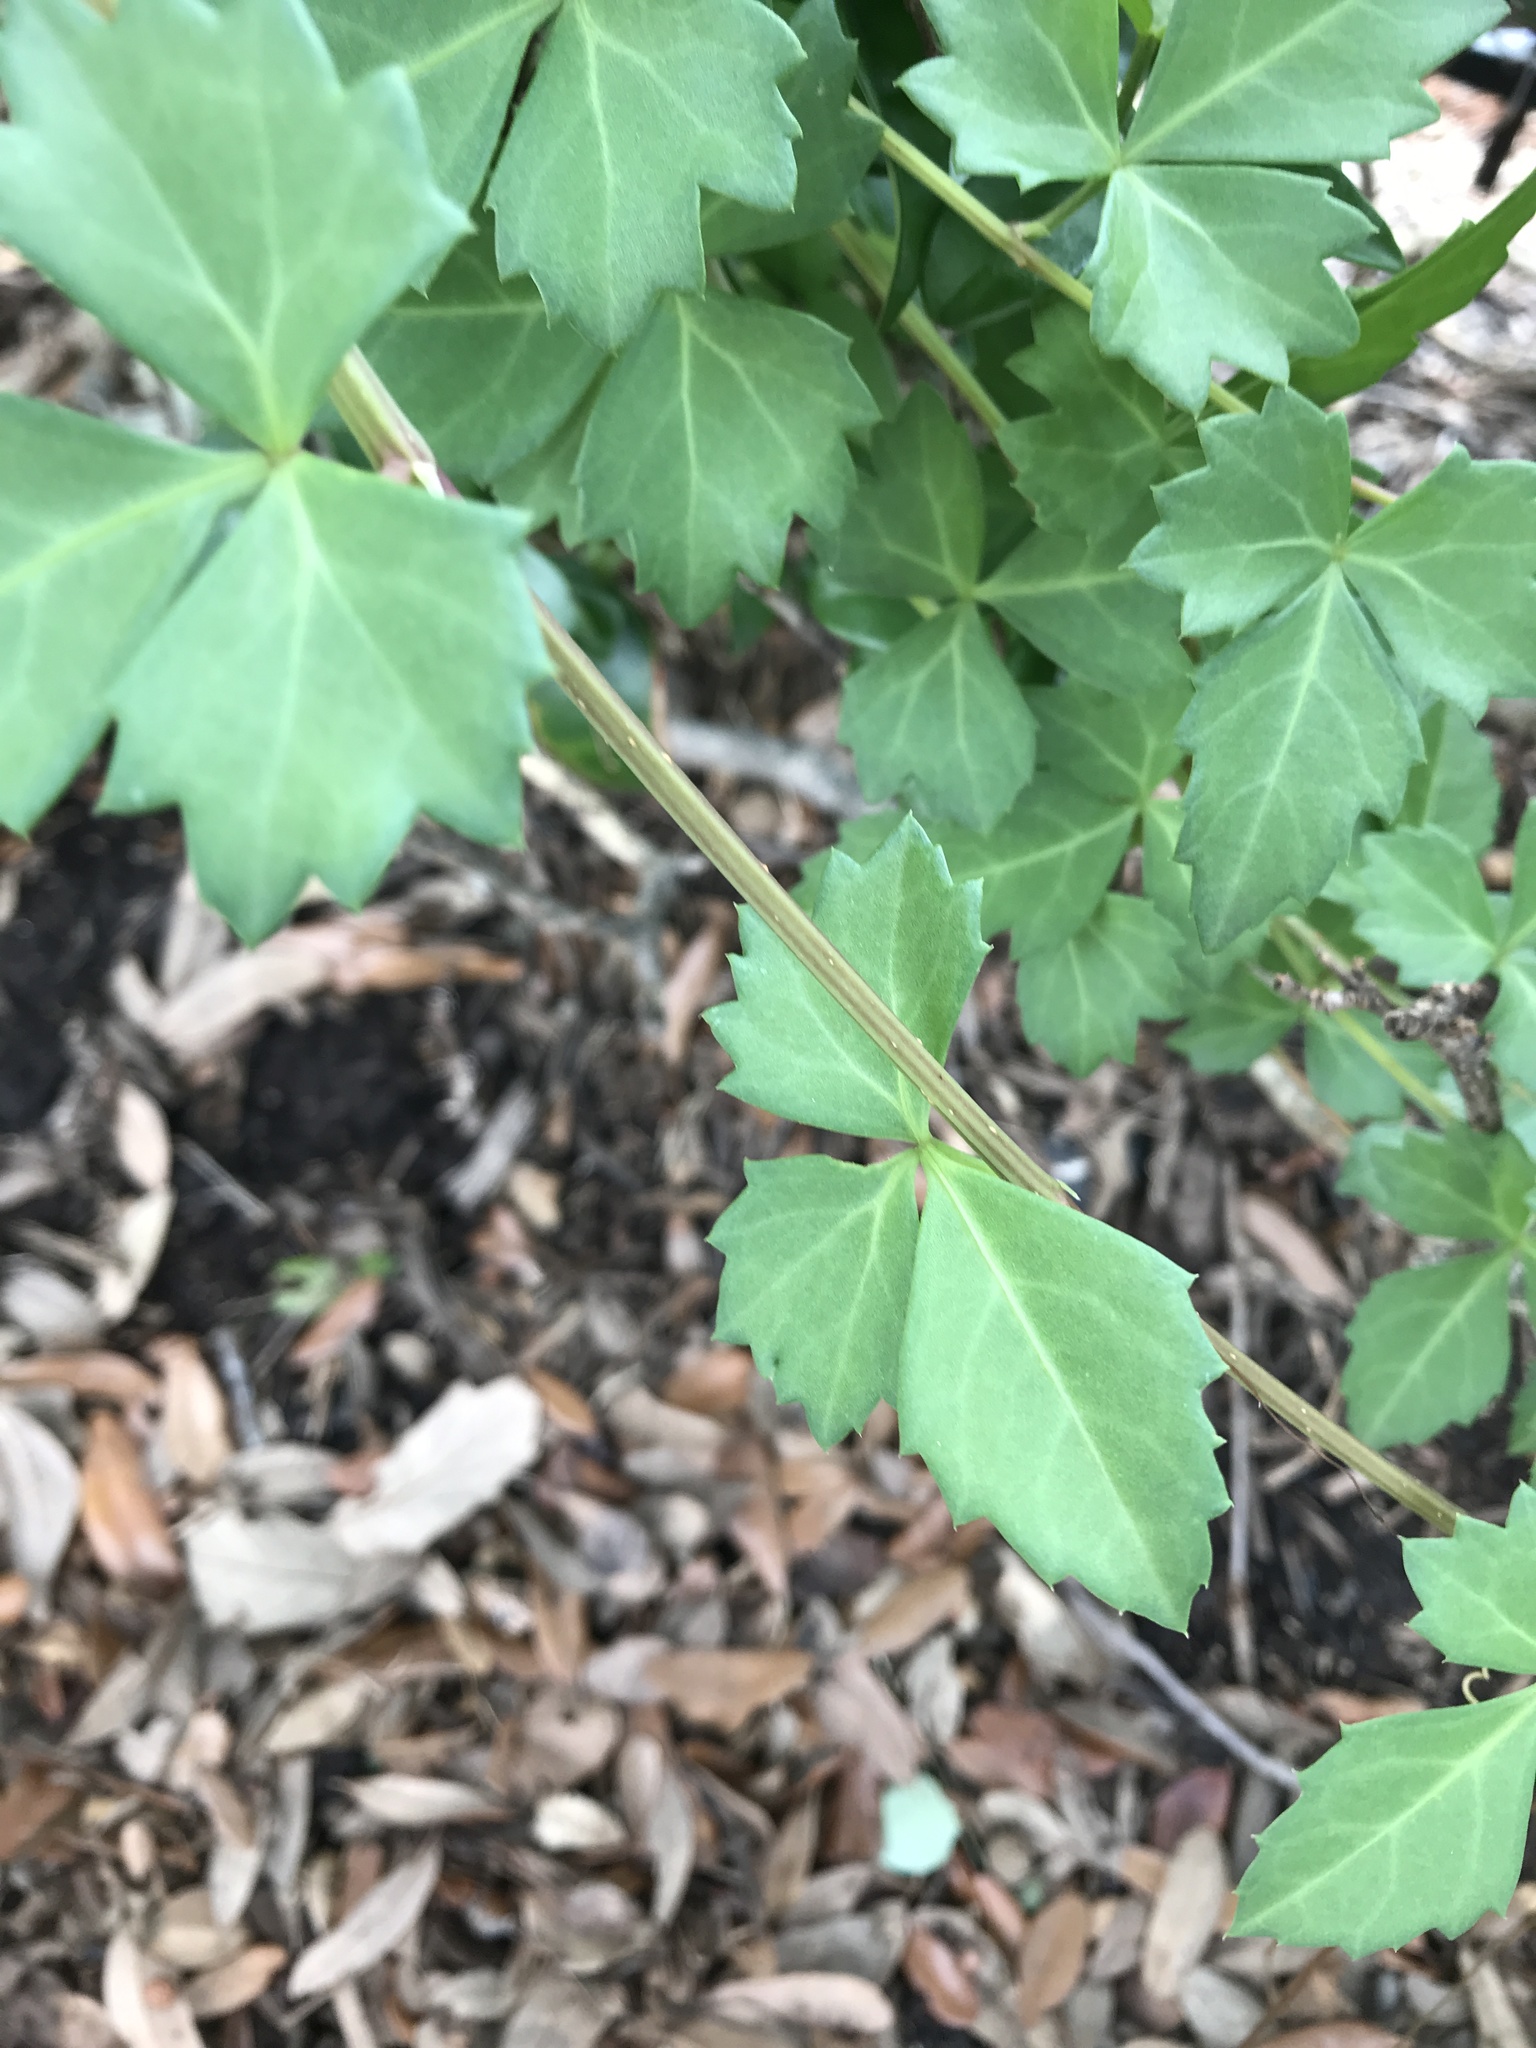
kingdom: Plantae
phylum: Tracheophyta
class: Magnoliopsida
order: Vitales
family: Vitaceae
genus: Cissus
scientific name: Cissus trifoliata
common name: Vine-sorrel
